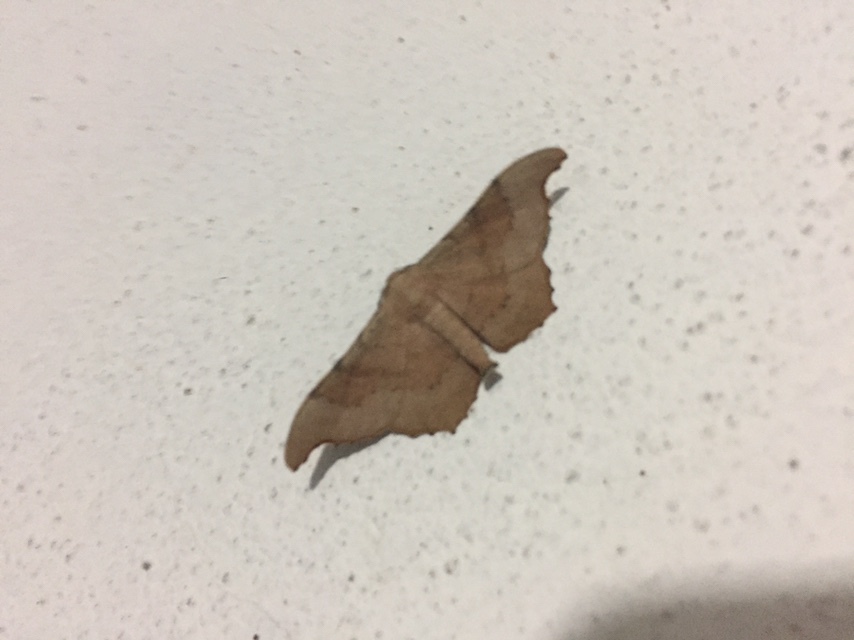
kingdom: Animalia
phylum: Arthropoda
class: Insecta
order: Lepidoptera
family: Geometridae
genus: Hyposidra
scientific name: Hyposidra talaca
